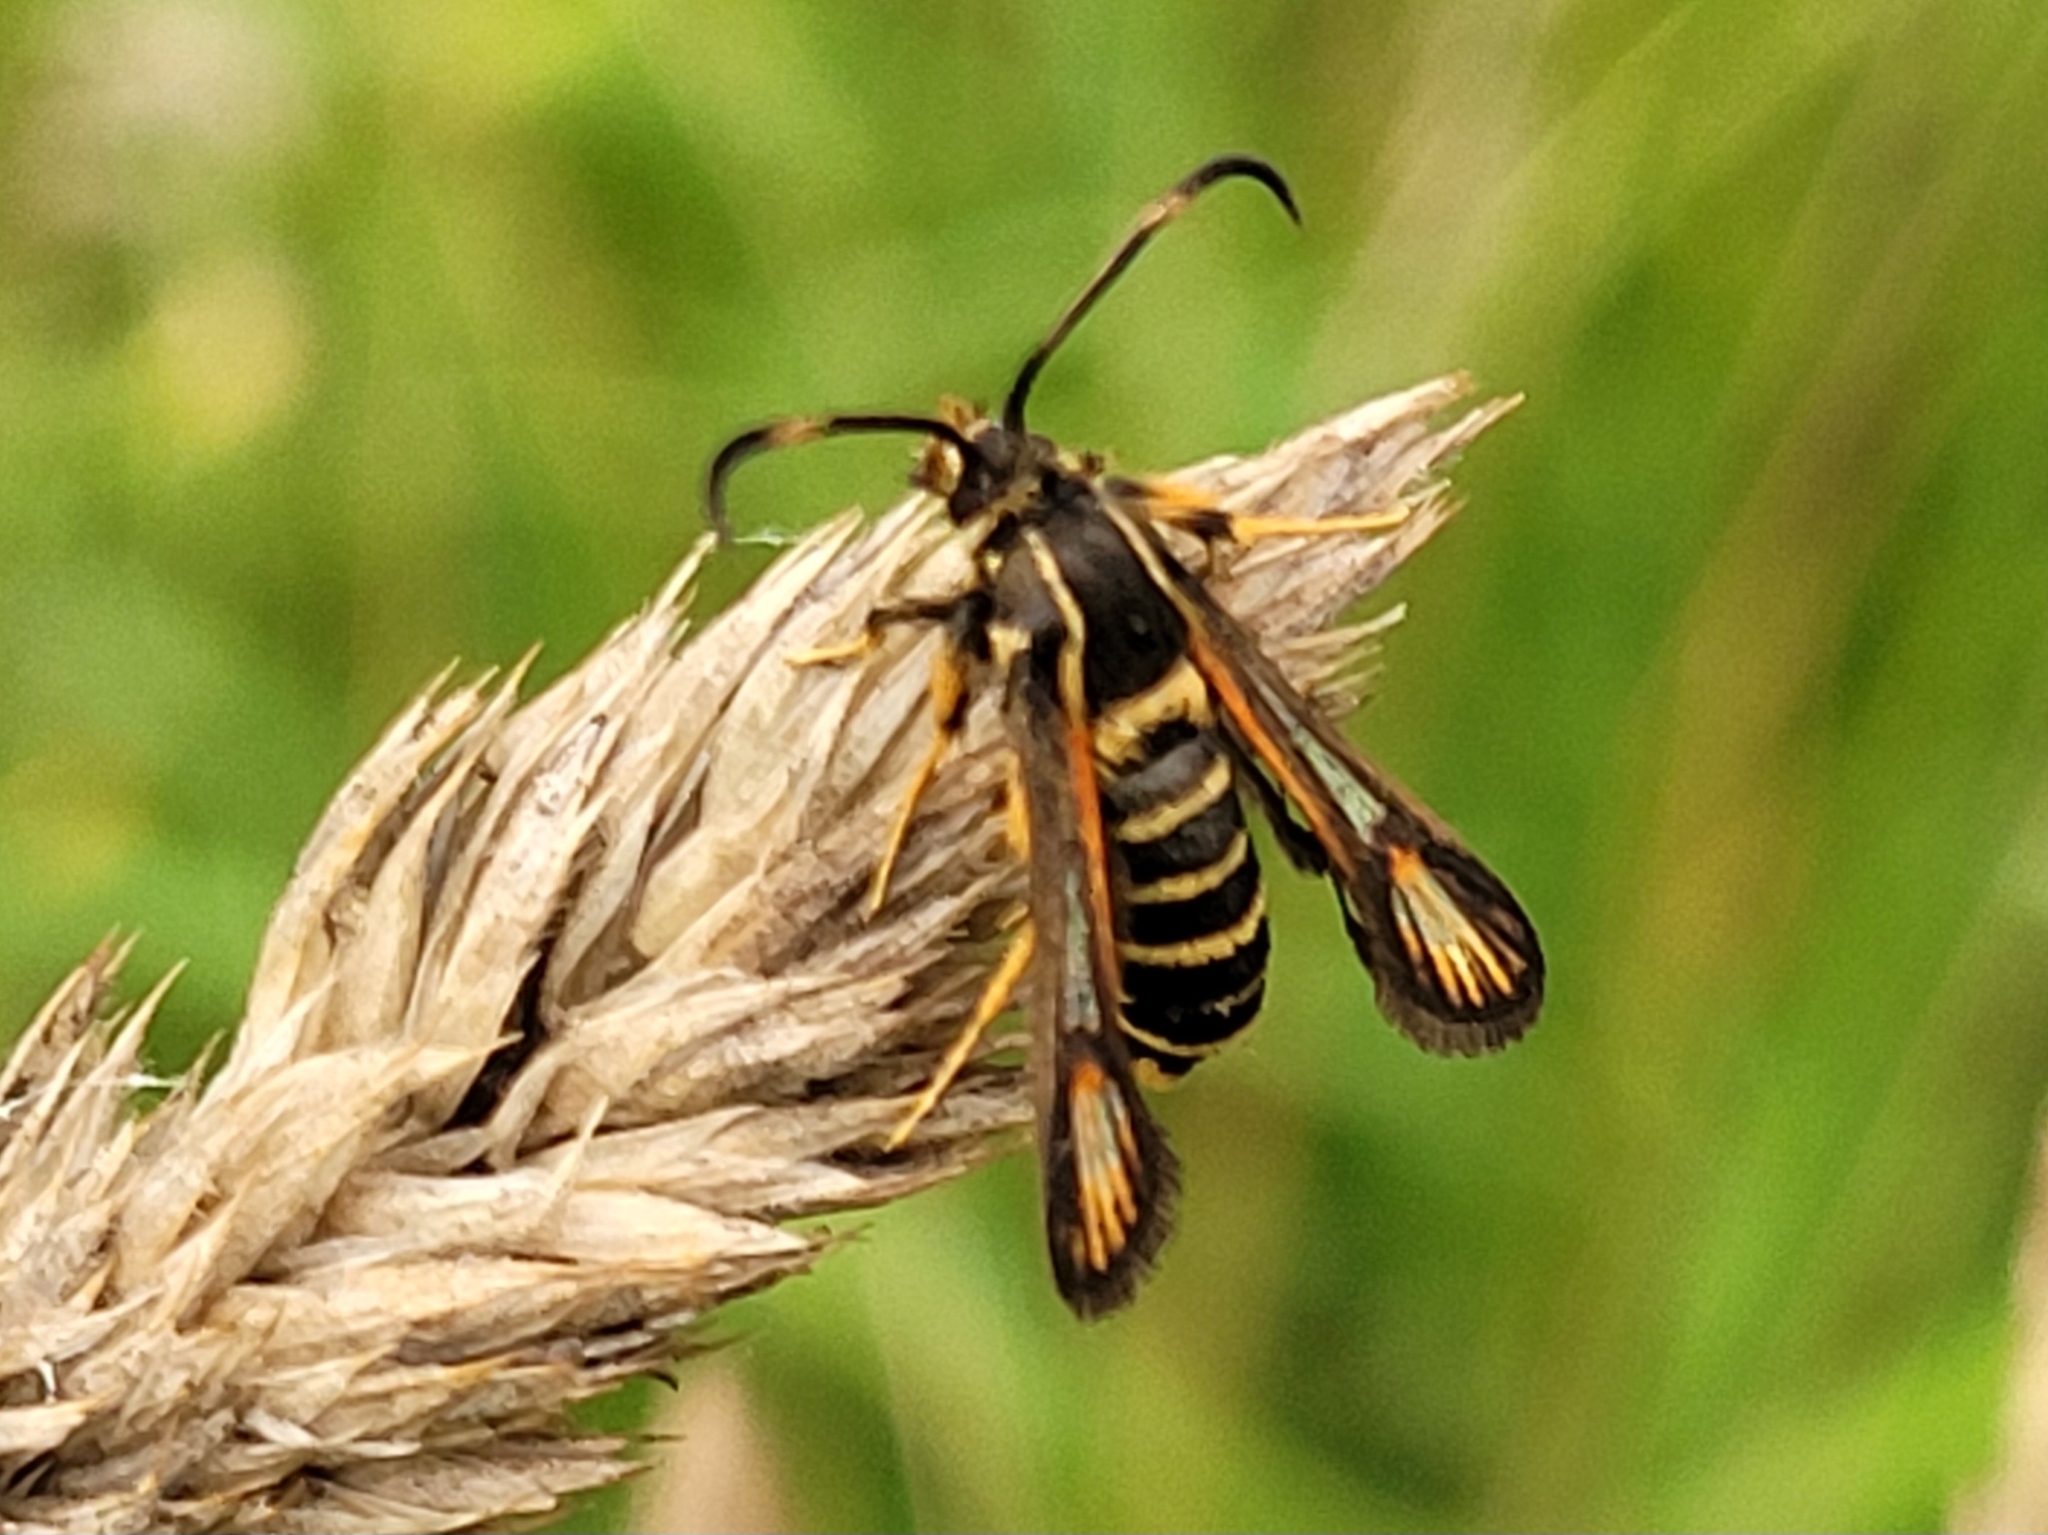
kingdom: Animalia
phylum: Arthropoda
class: Insecta
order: Lepidoptera
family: Sesiidae
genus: Bembecia
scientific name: Bembecia ichneumoniformis
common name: Six-belted clearwing
